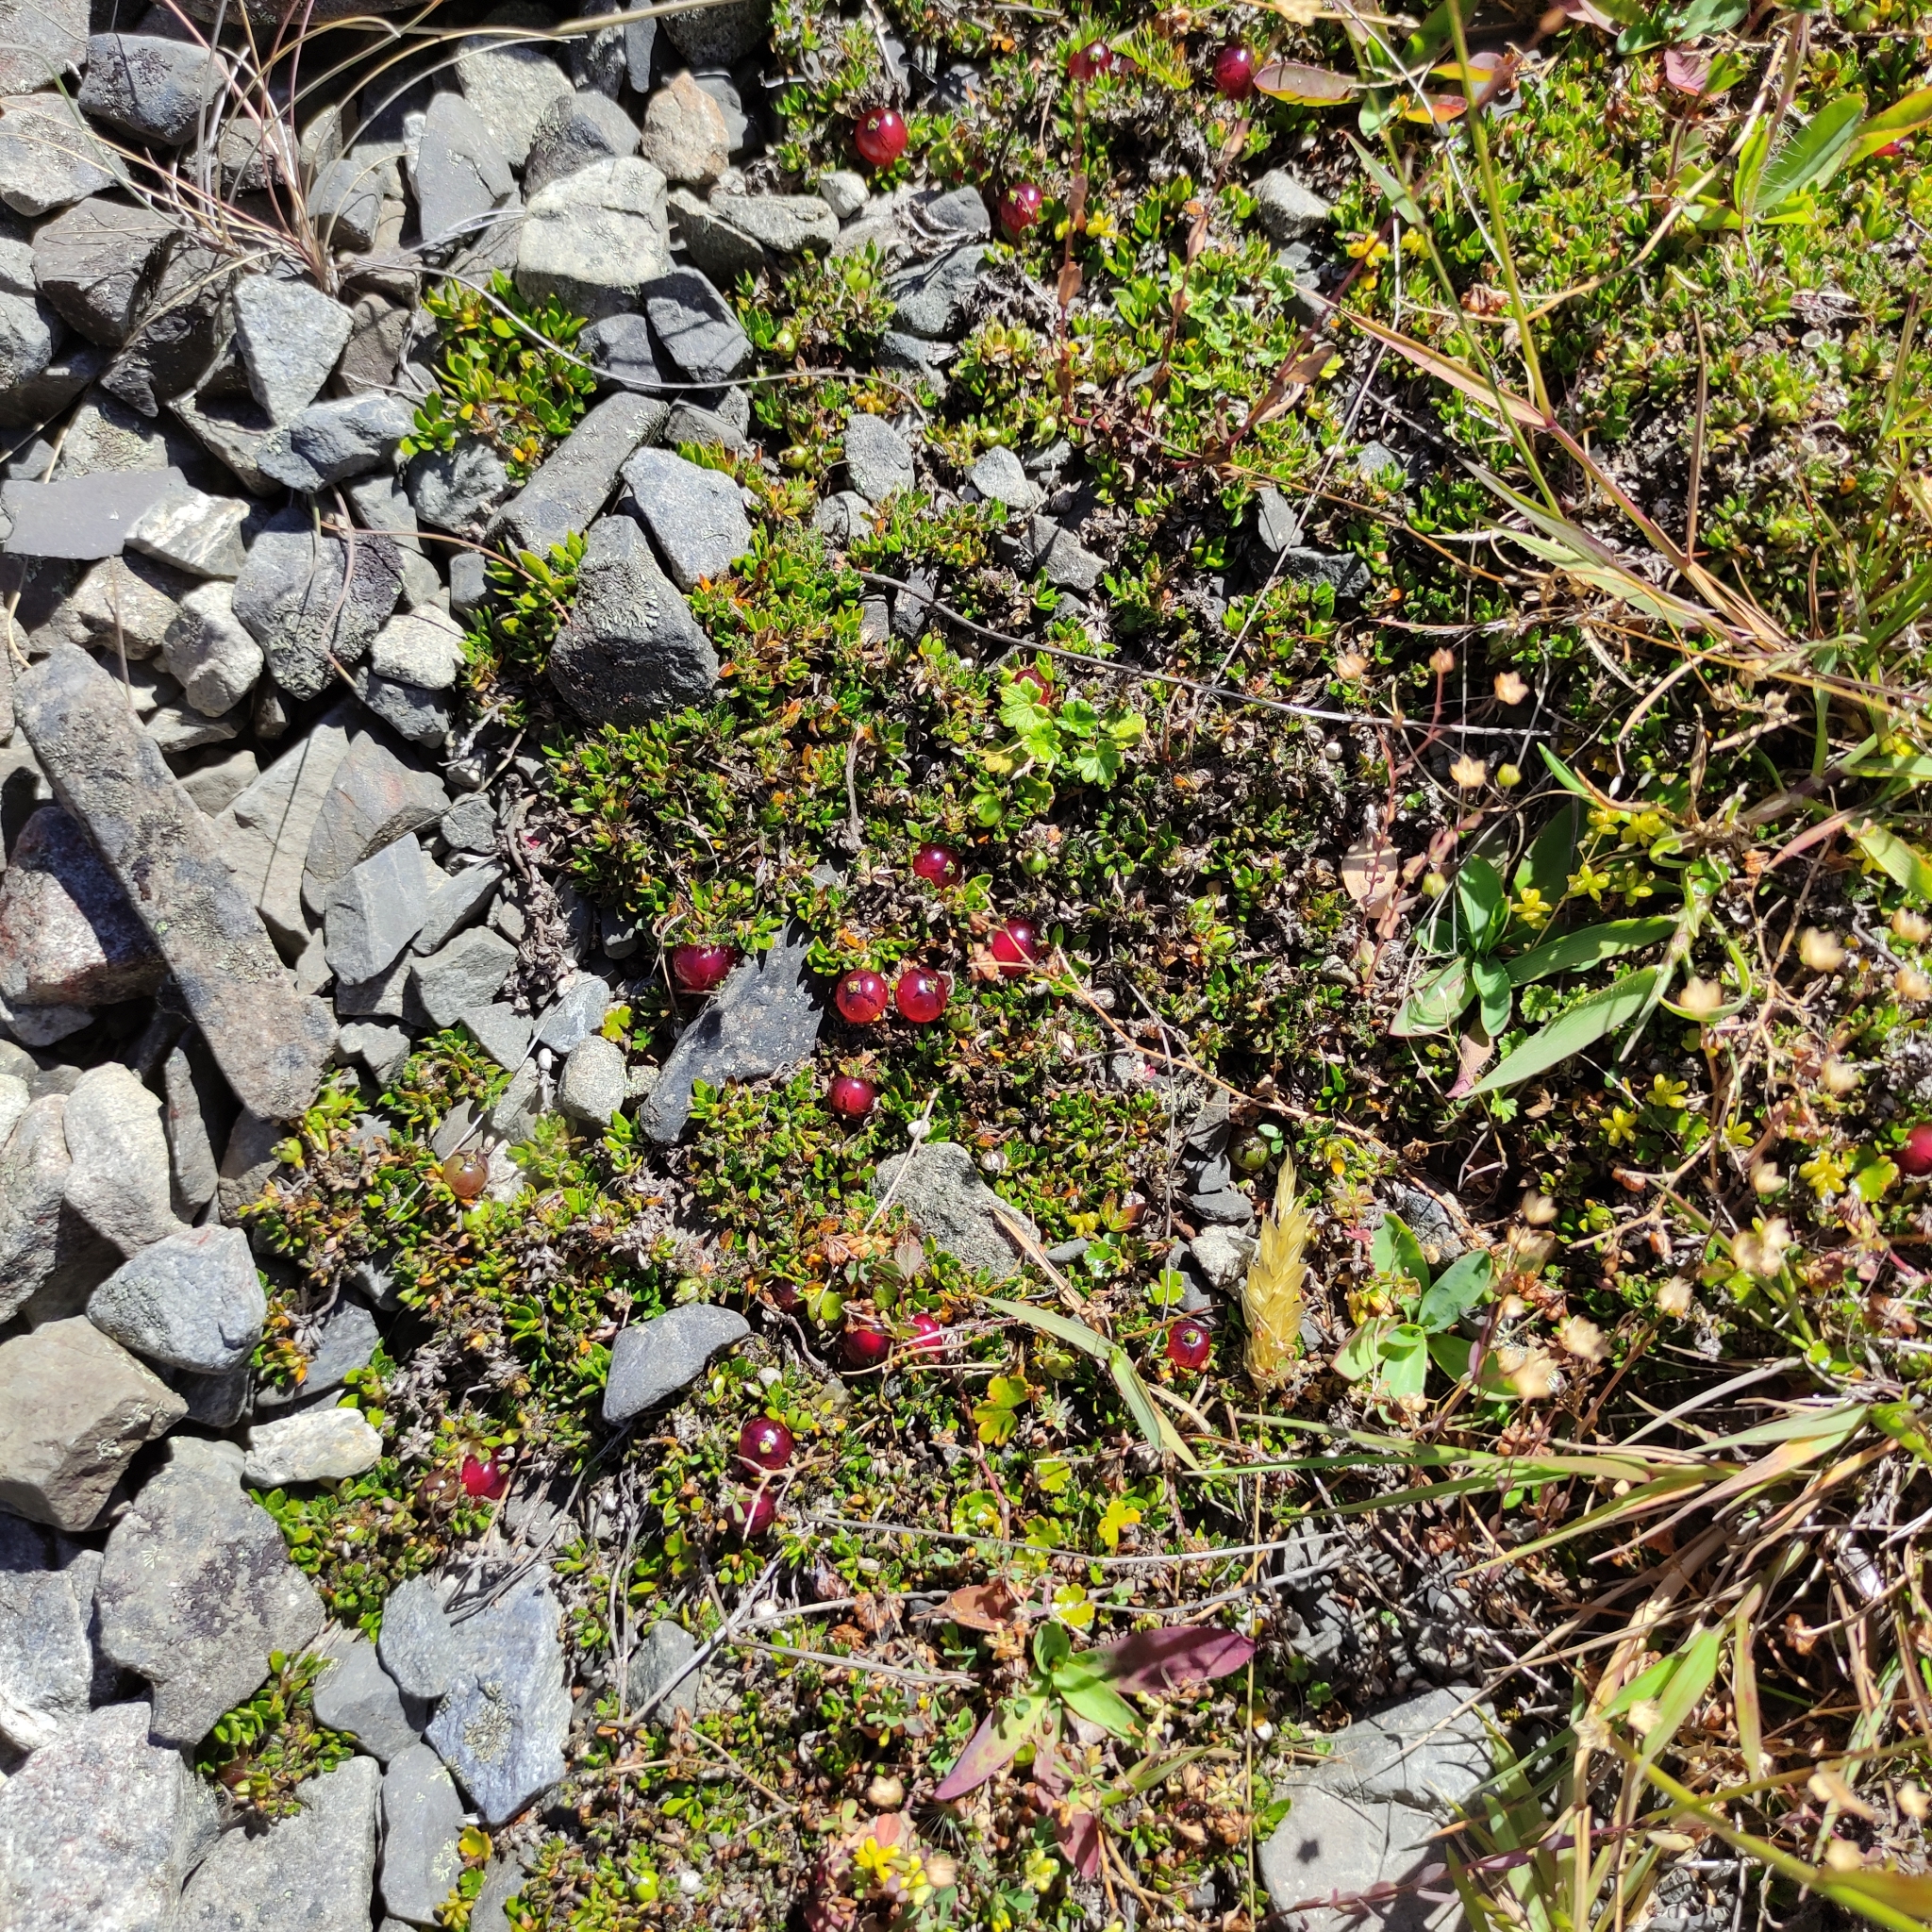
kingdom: Plantae
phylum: Tracheophyta
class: Magnoliopsida
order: Gentianales
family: Rubiaceae
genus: Coprosma
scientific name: Coprosma atropurpurea
